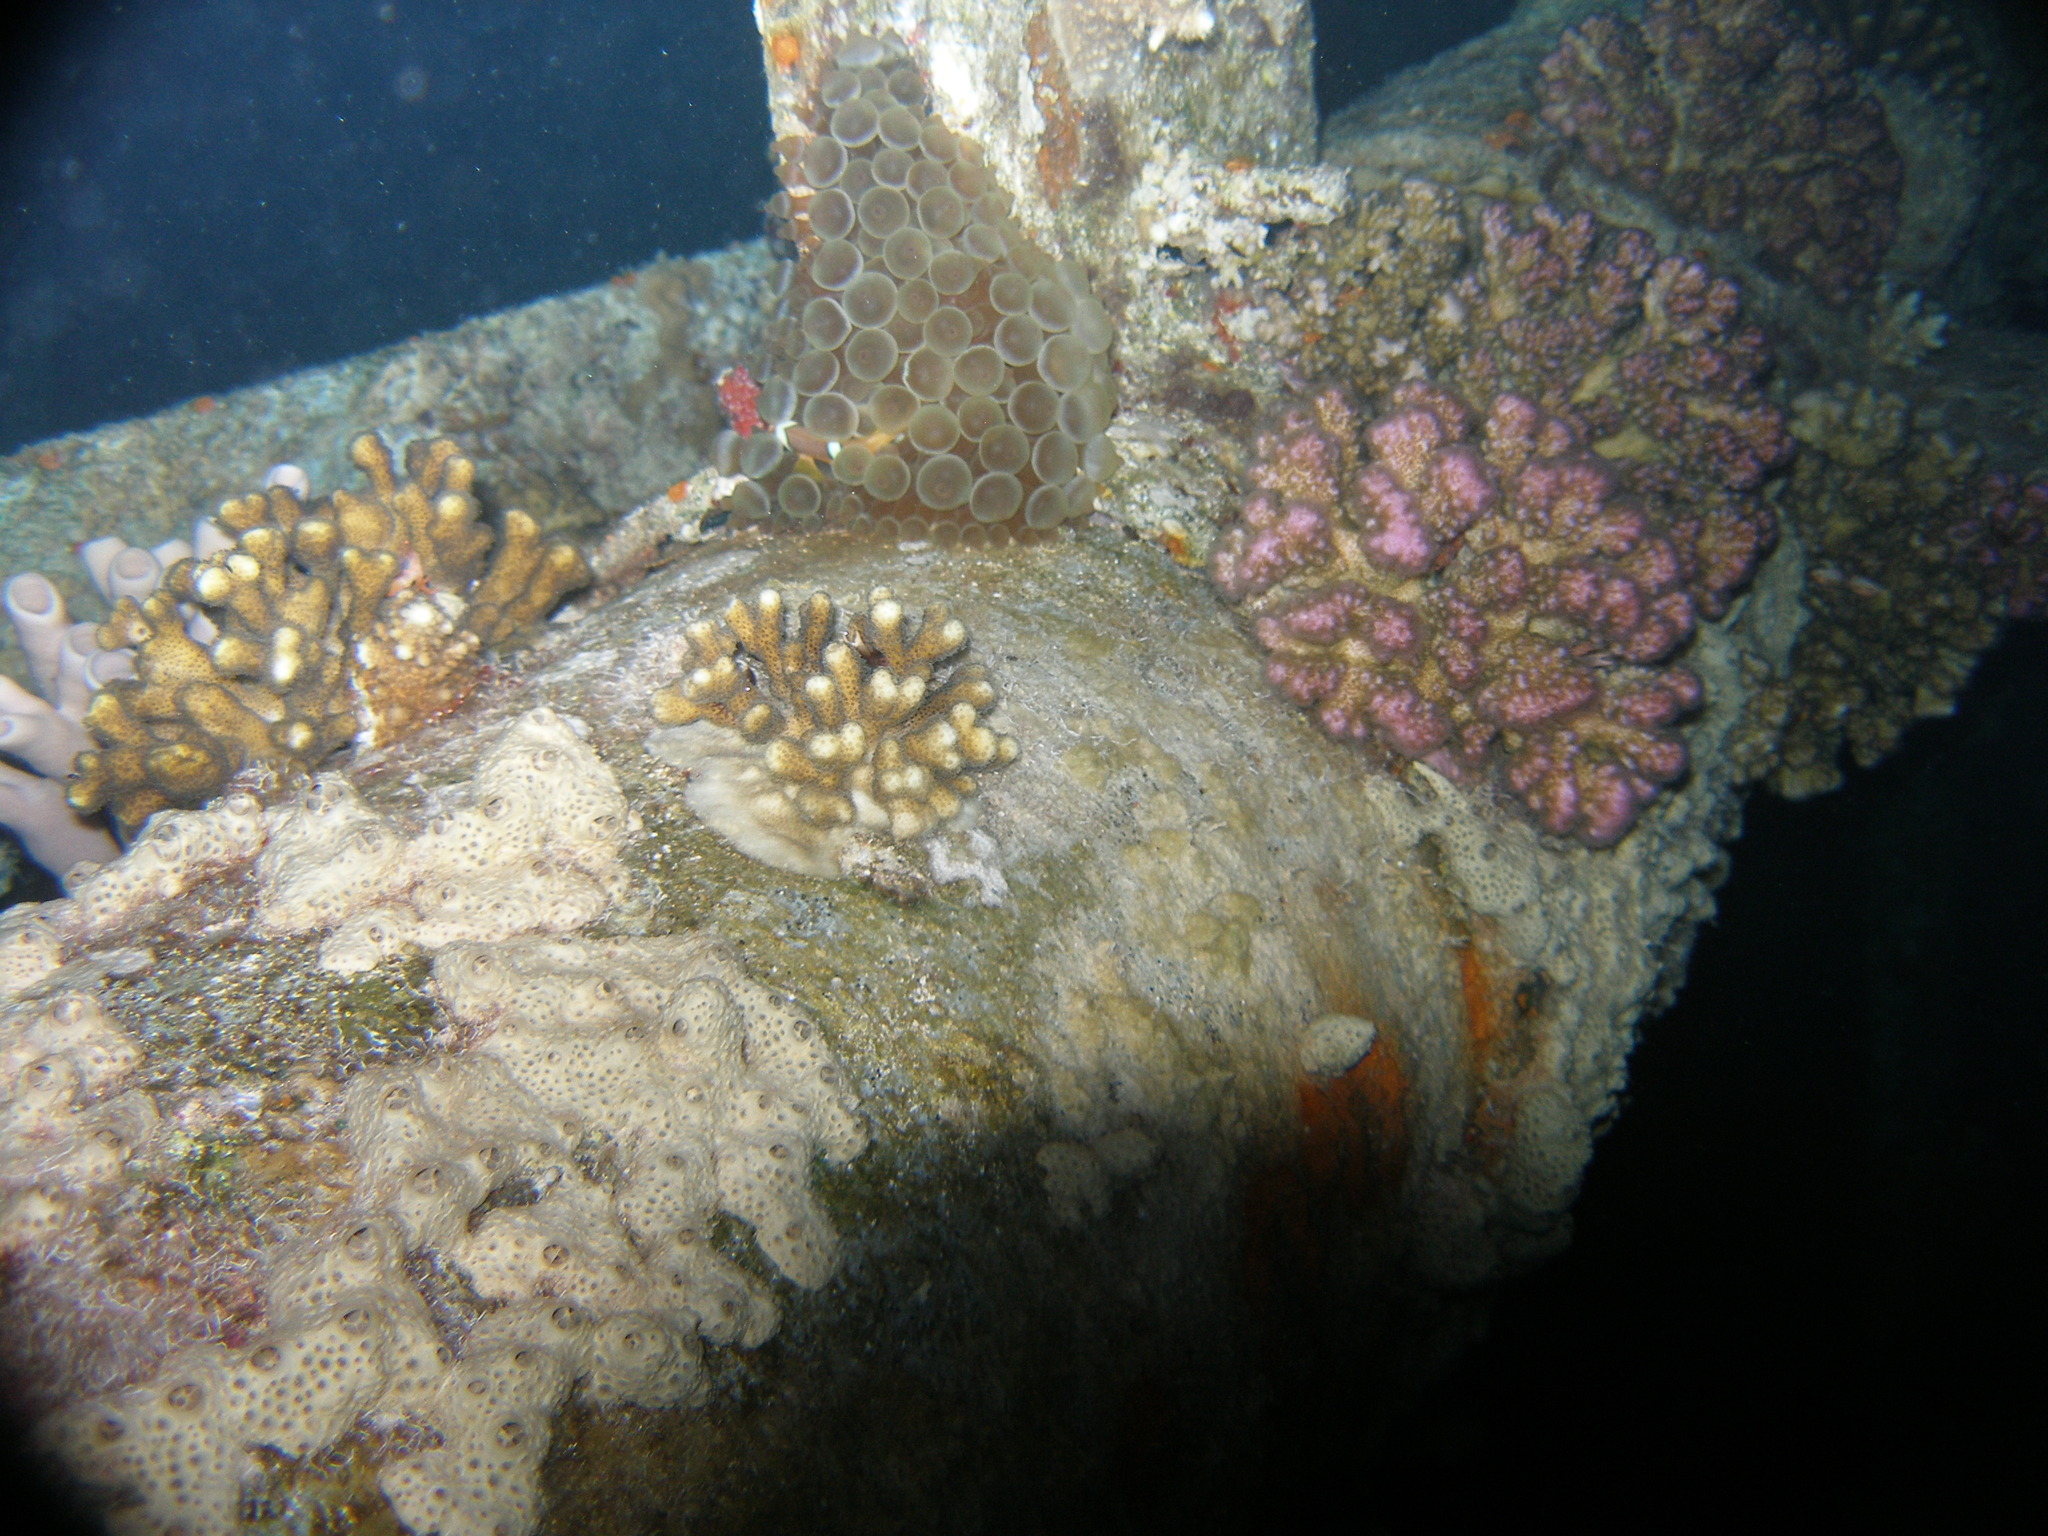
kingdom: Animalia
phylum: Cnidaria
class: Anthozoa
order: Actiniaria
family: Actiniidae
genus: Entacmaea
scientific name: Entacmaea quadricolor
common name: Bulb tentacle sea anemone
